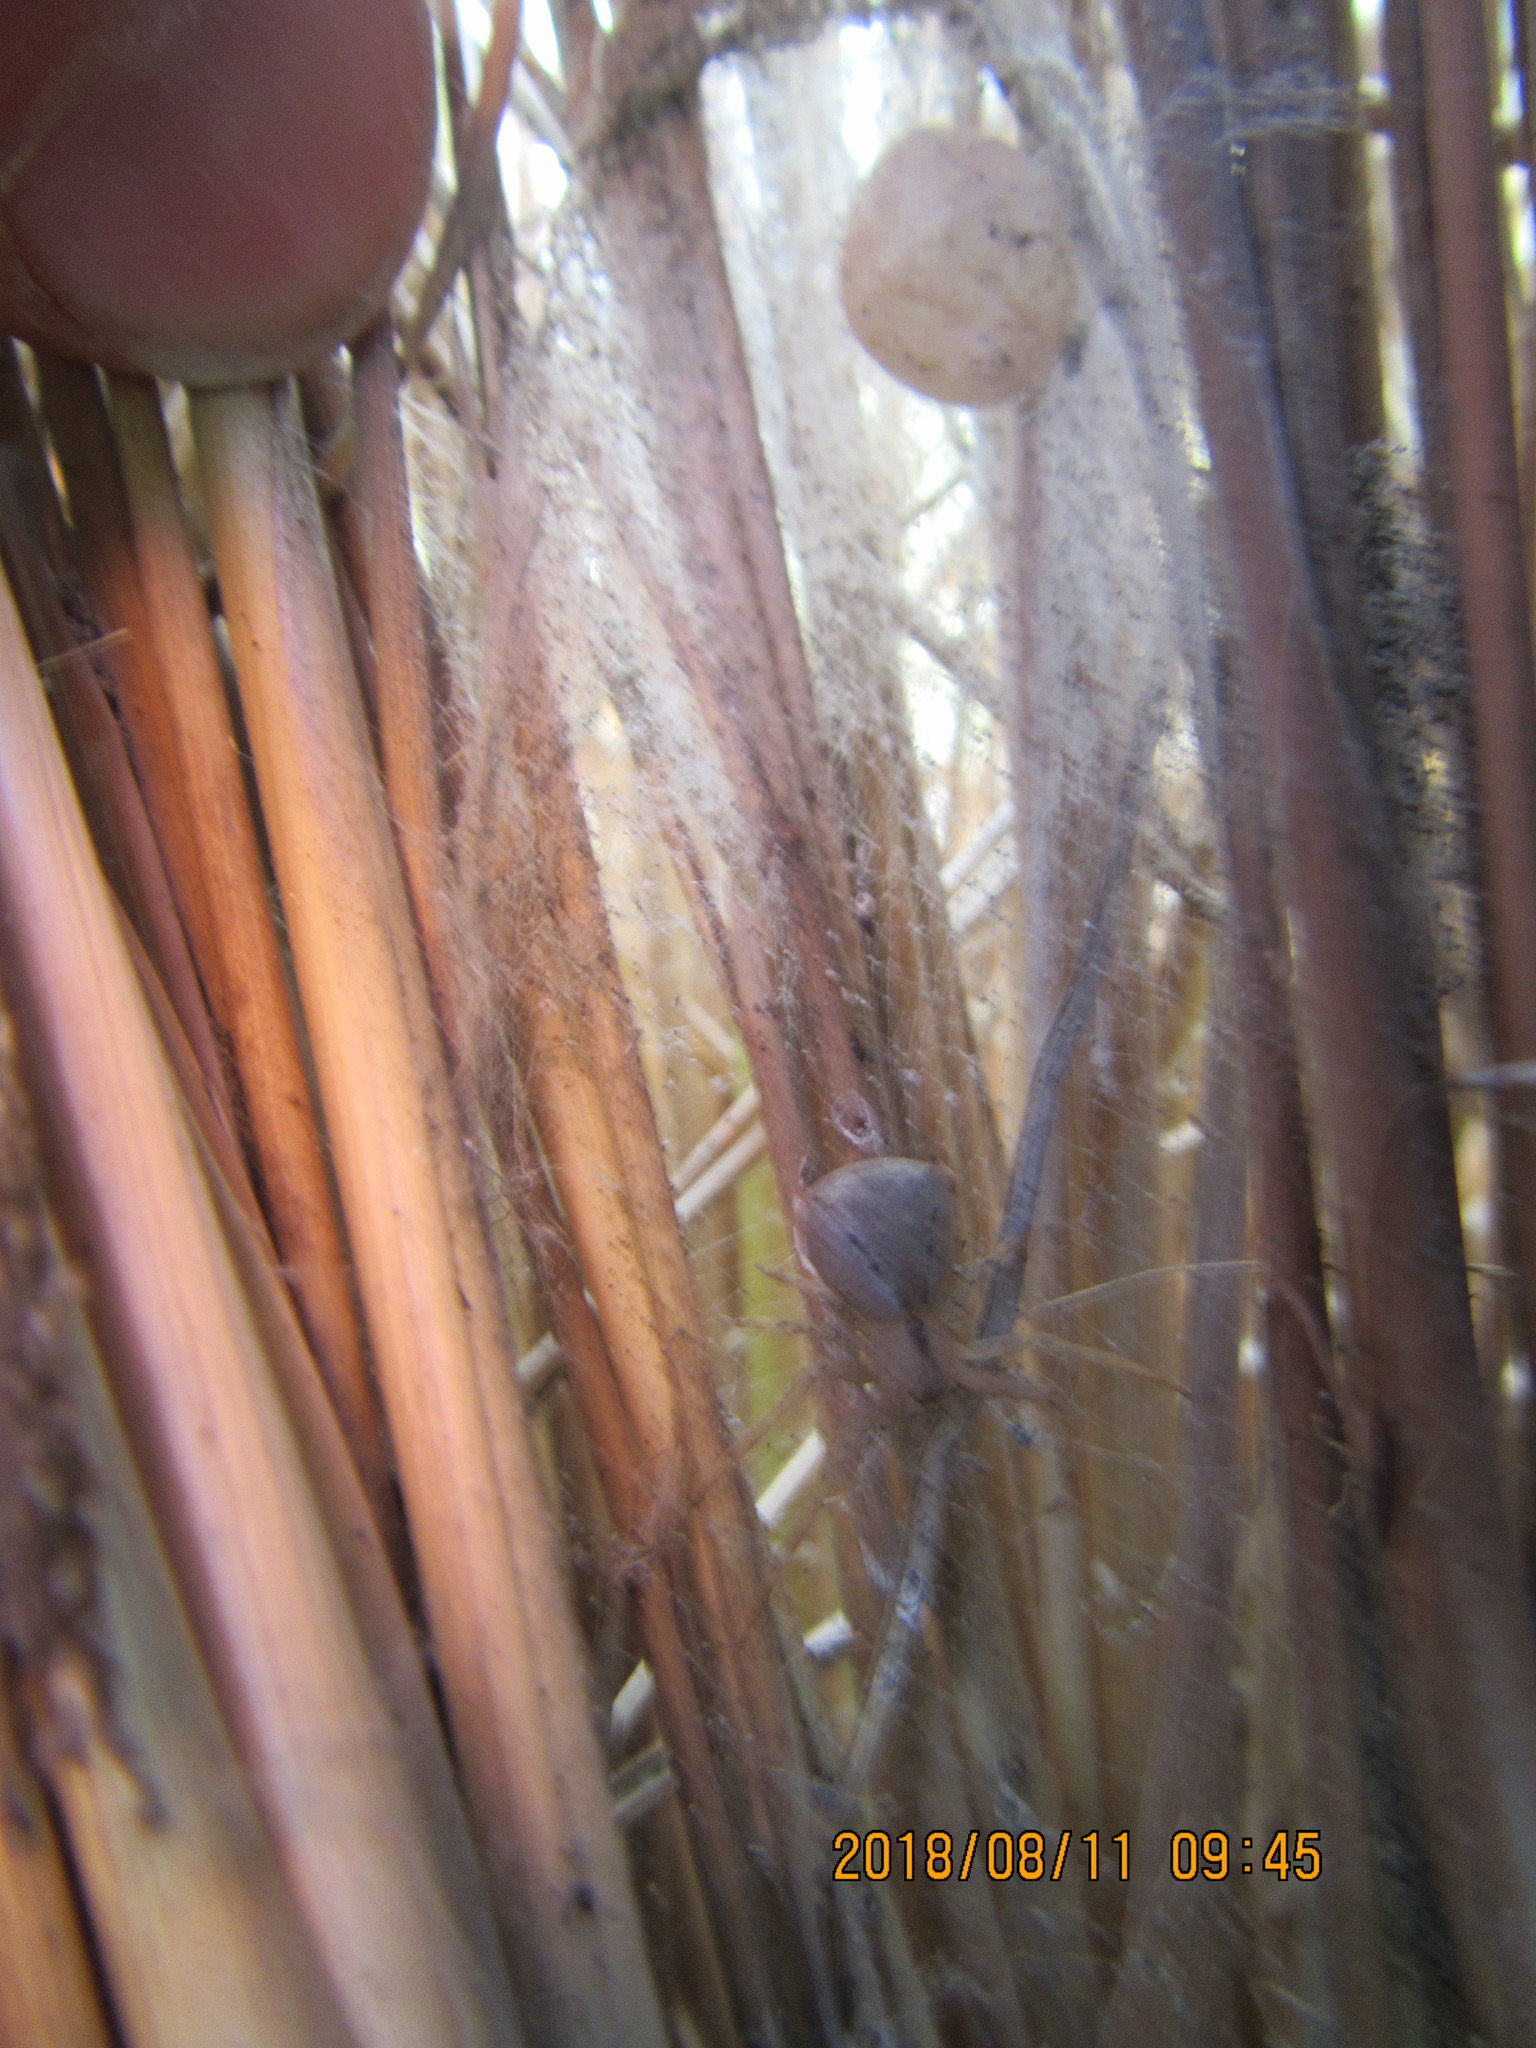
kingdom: Animalia
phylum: Arthropoda
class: Arachnida
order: Araneae
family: Thomisidae
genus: Sidymella
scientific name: Sidymella trapezia
